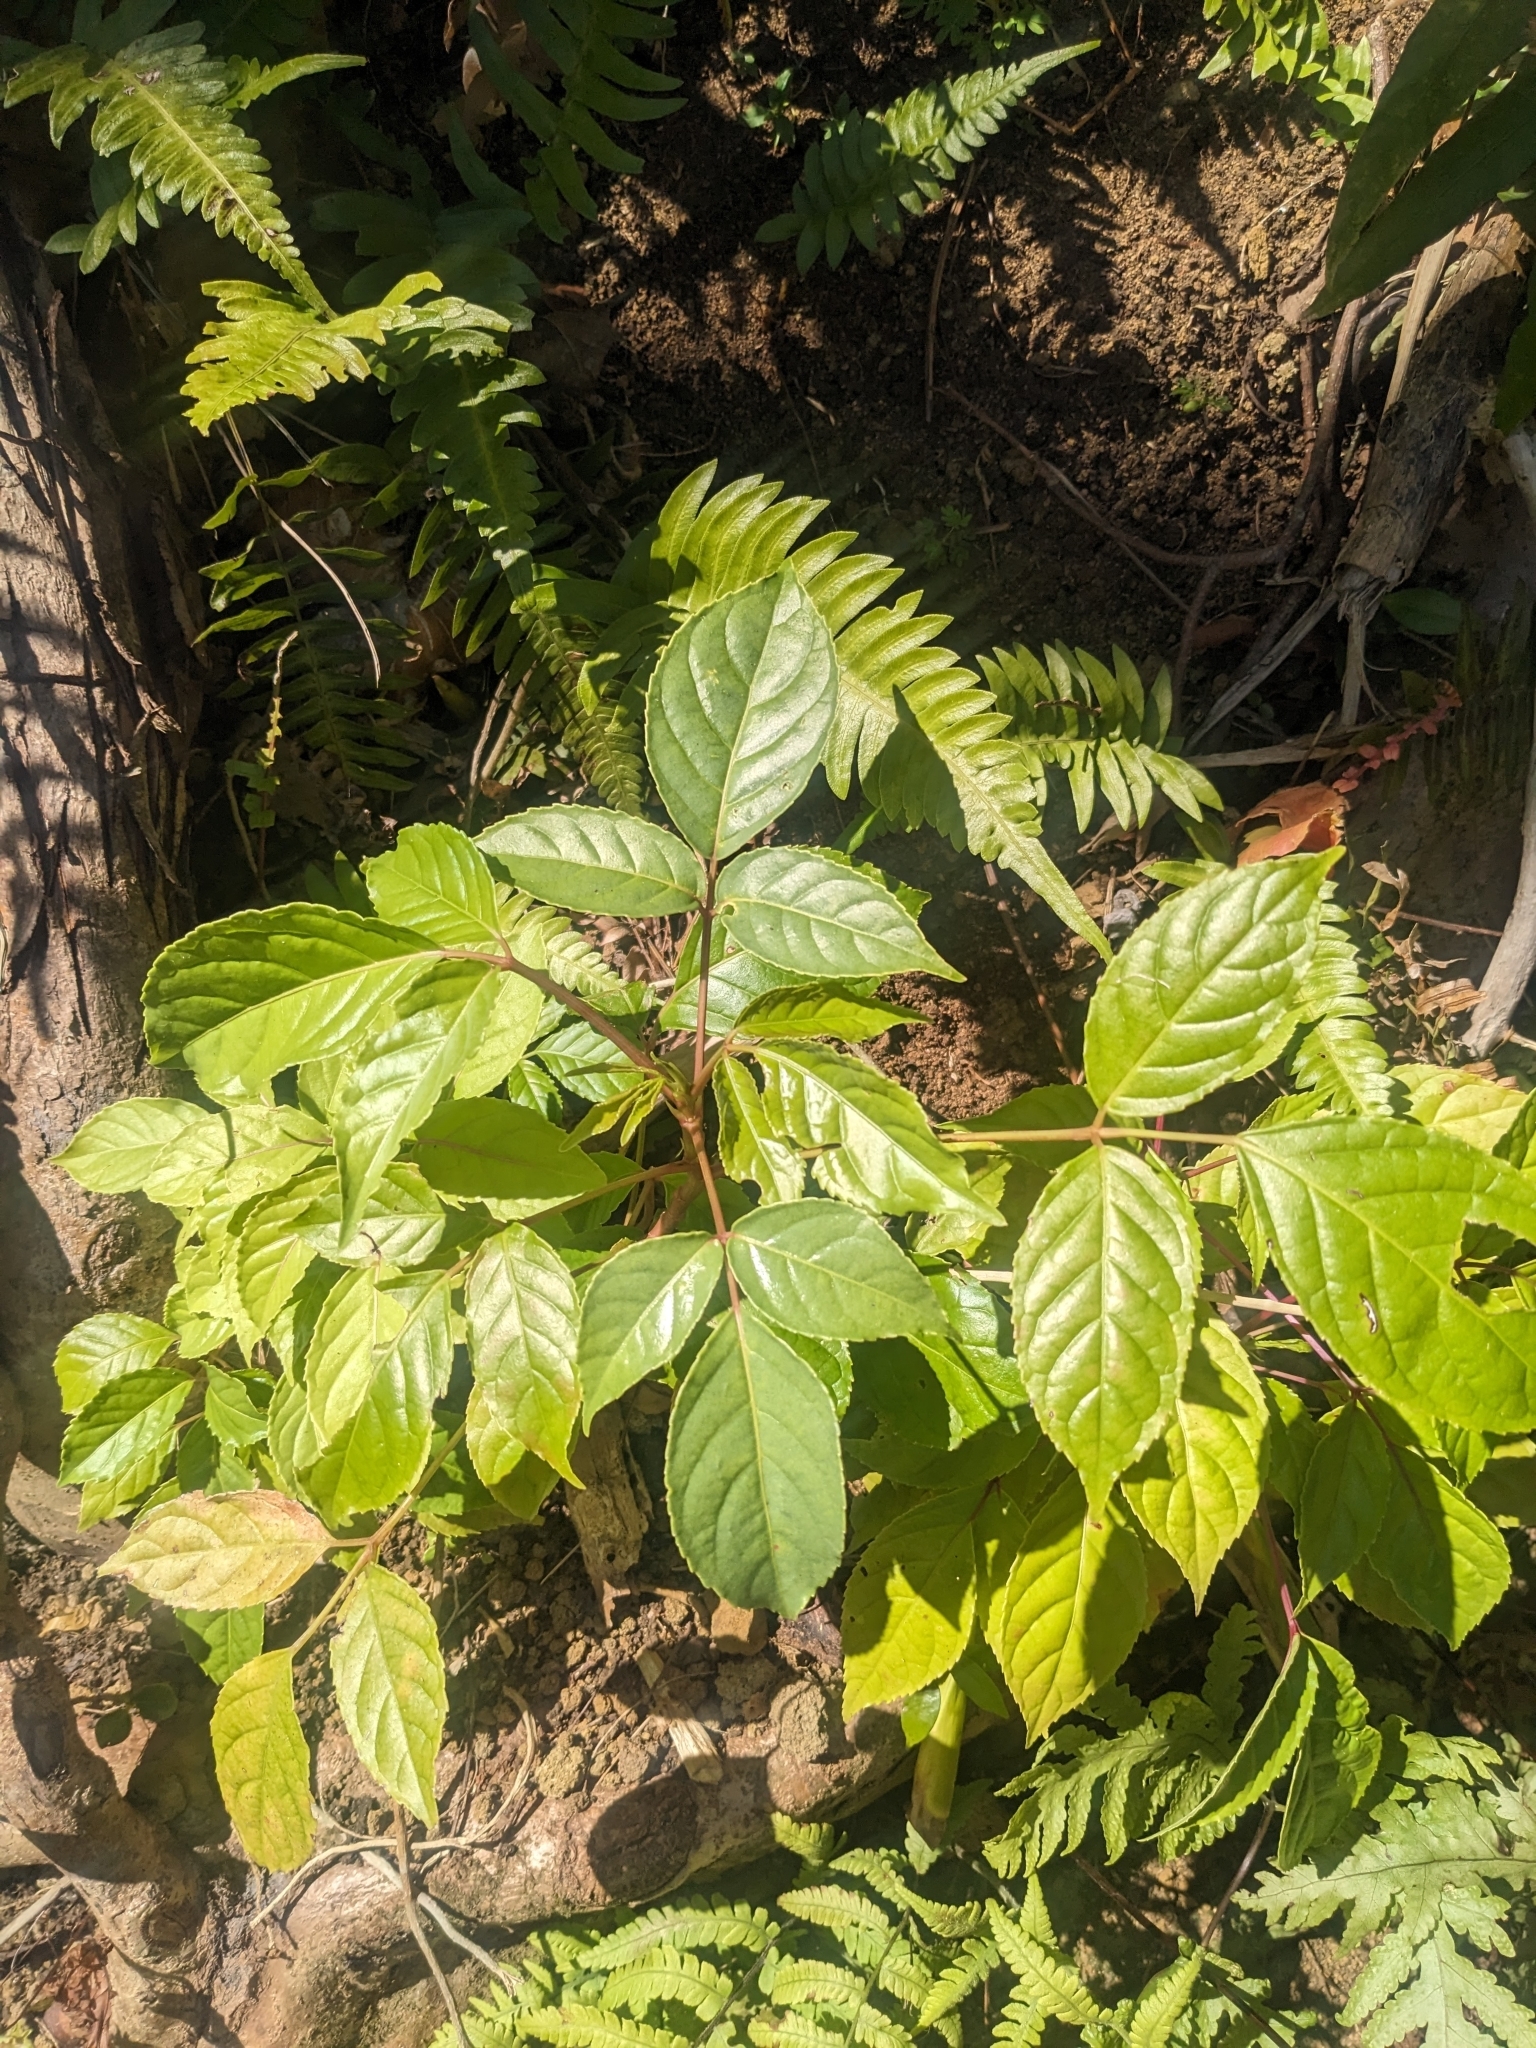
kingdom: Plantae
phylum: Tracheophyta
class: Magnoliopsida
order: Malpighiales
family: Phyllanthaceae
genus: Bischofia
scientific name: Bischofia javanica
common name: Javanese bishopwood
